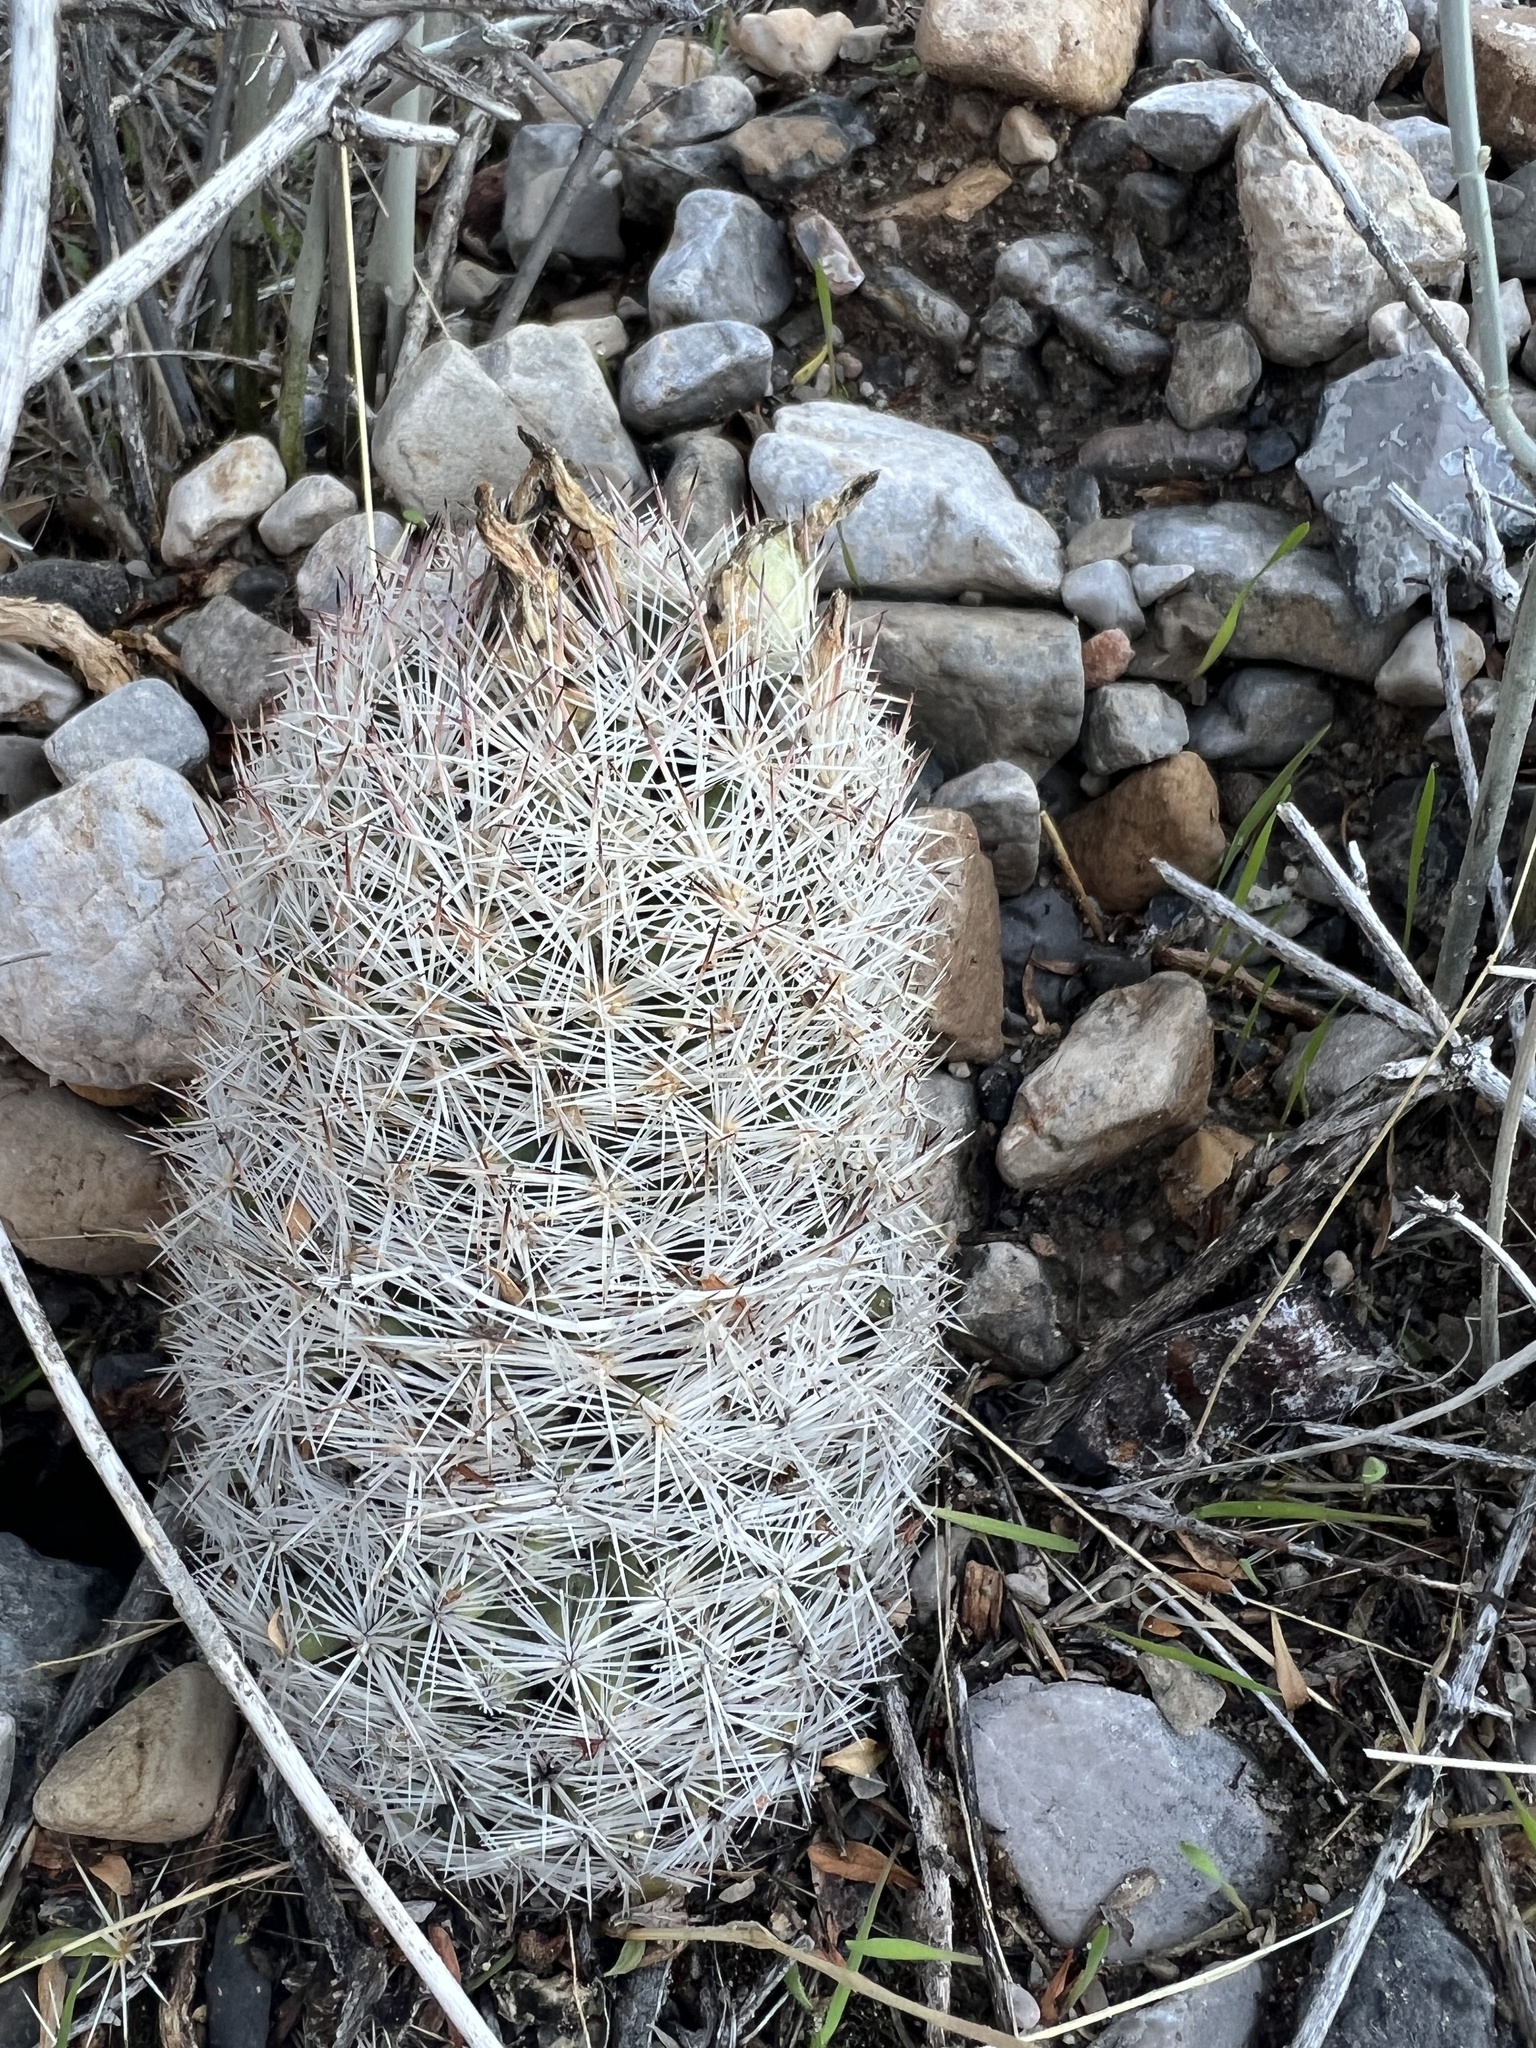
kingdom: Plantae
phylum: Tracheophyta
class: Magnoliopsida
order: Caryophyllales
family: Cactaceae
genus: Pelecyphora
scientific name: Pelecyphora dasyacantha
